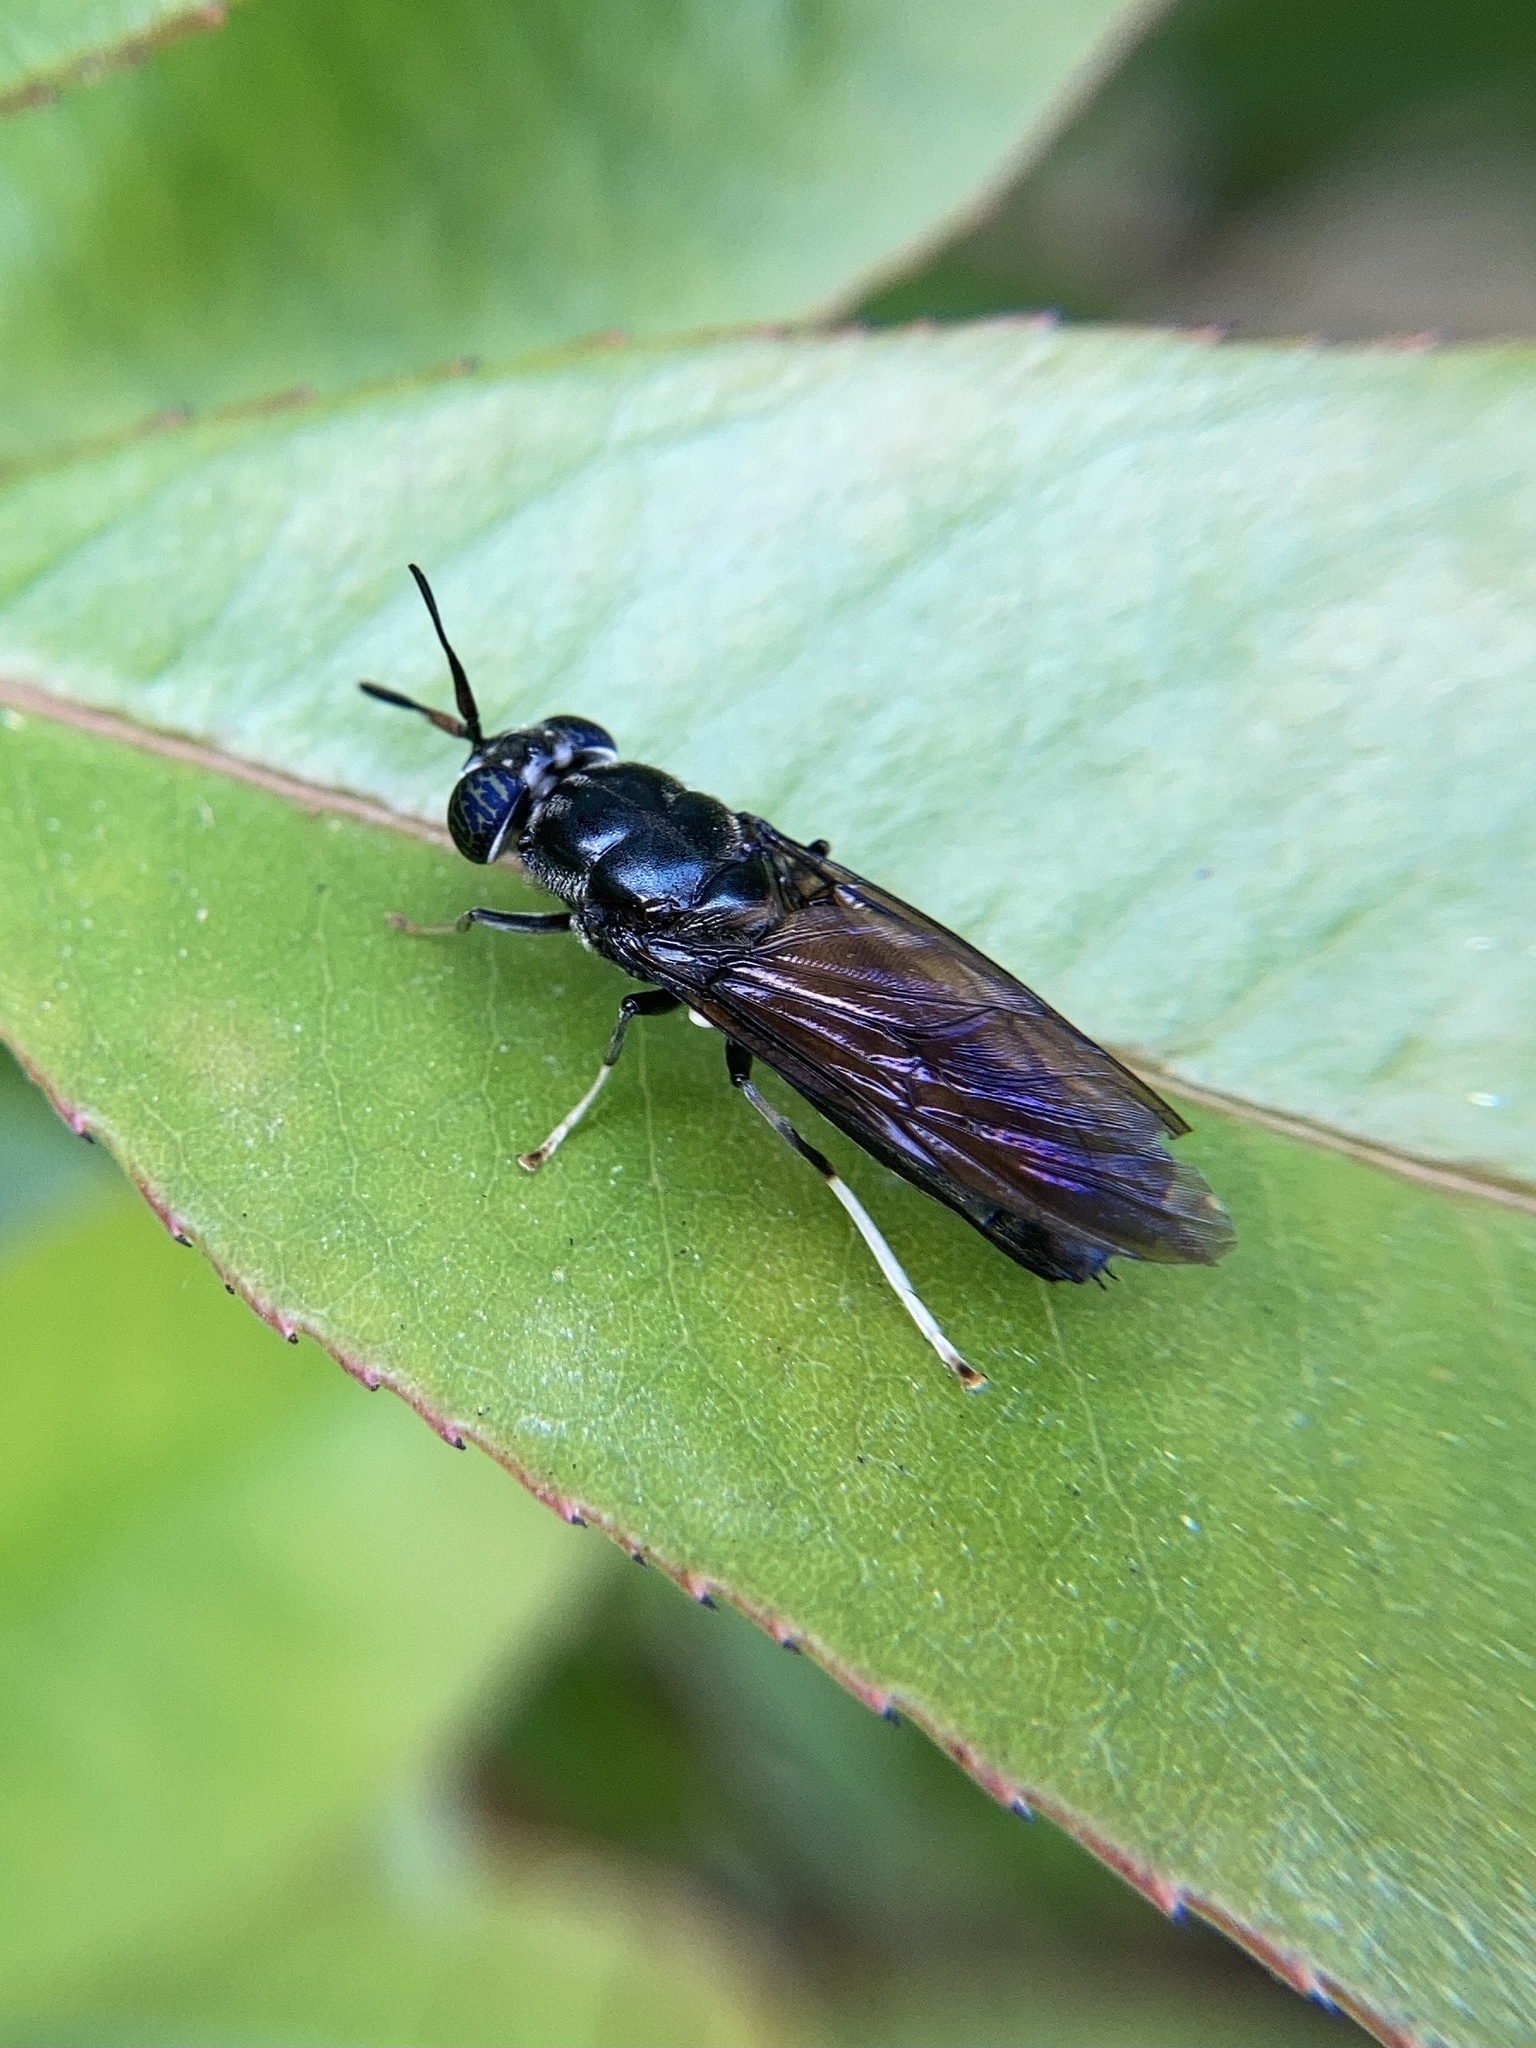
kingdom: Animalia
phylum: Arthropoda
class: Insecta
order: Diptera
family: Stratiomyidae
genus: Hermetia
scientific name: Hermetia illucens
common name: Black soldier fly
